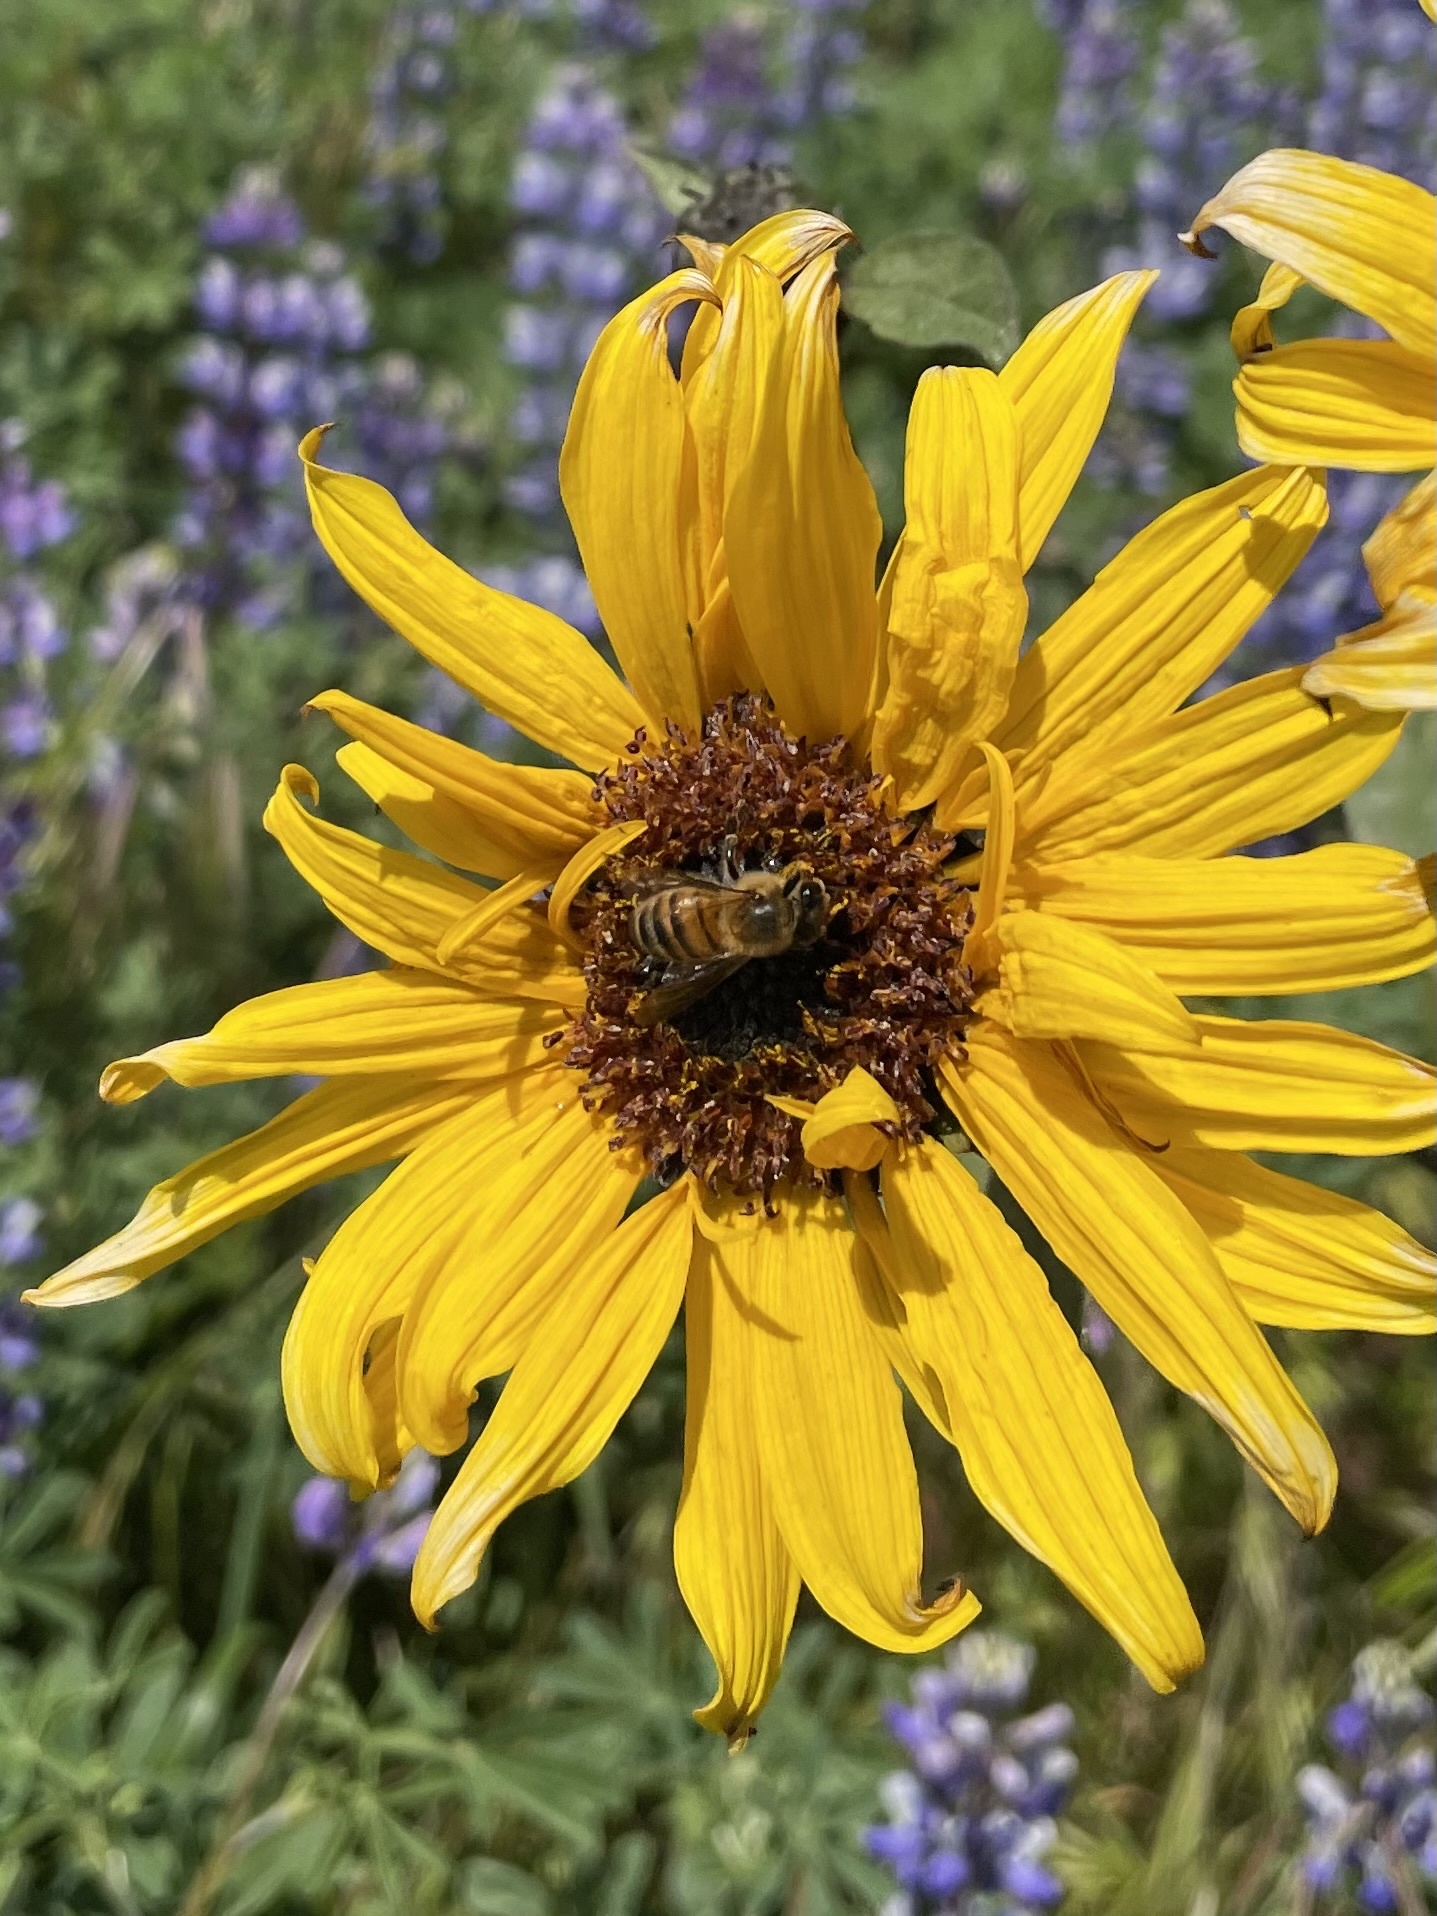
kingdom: Animalia
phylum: Arthropoda
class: Insecta
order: Hymenoptera
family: Apidae
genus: Apis
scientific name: Apis mellifera
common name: Honey bee
